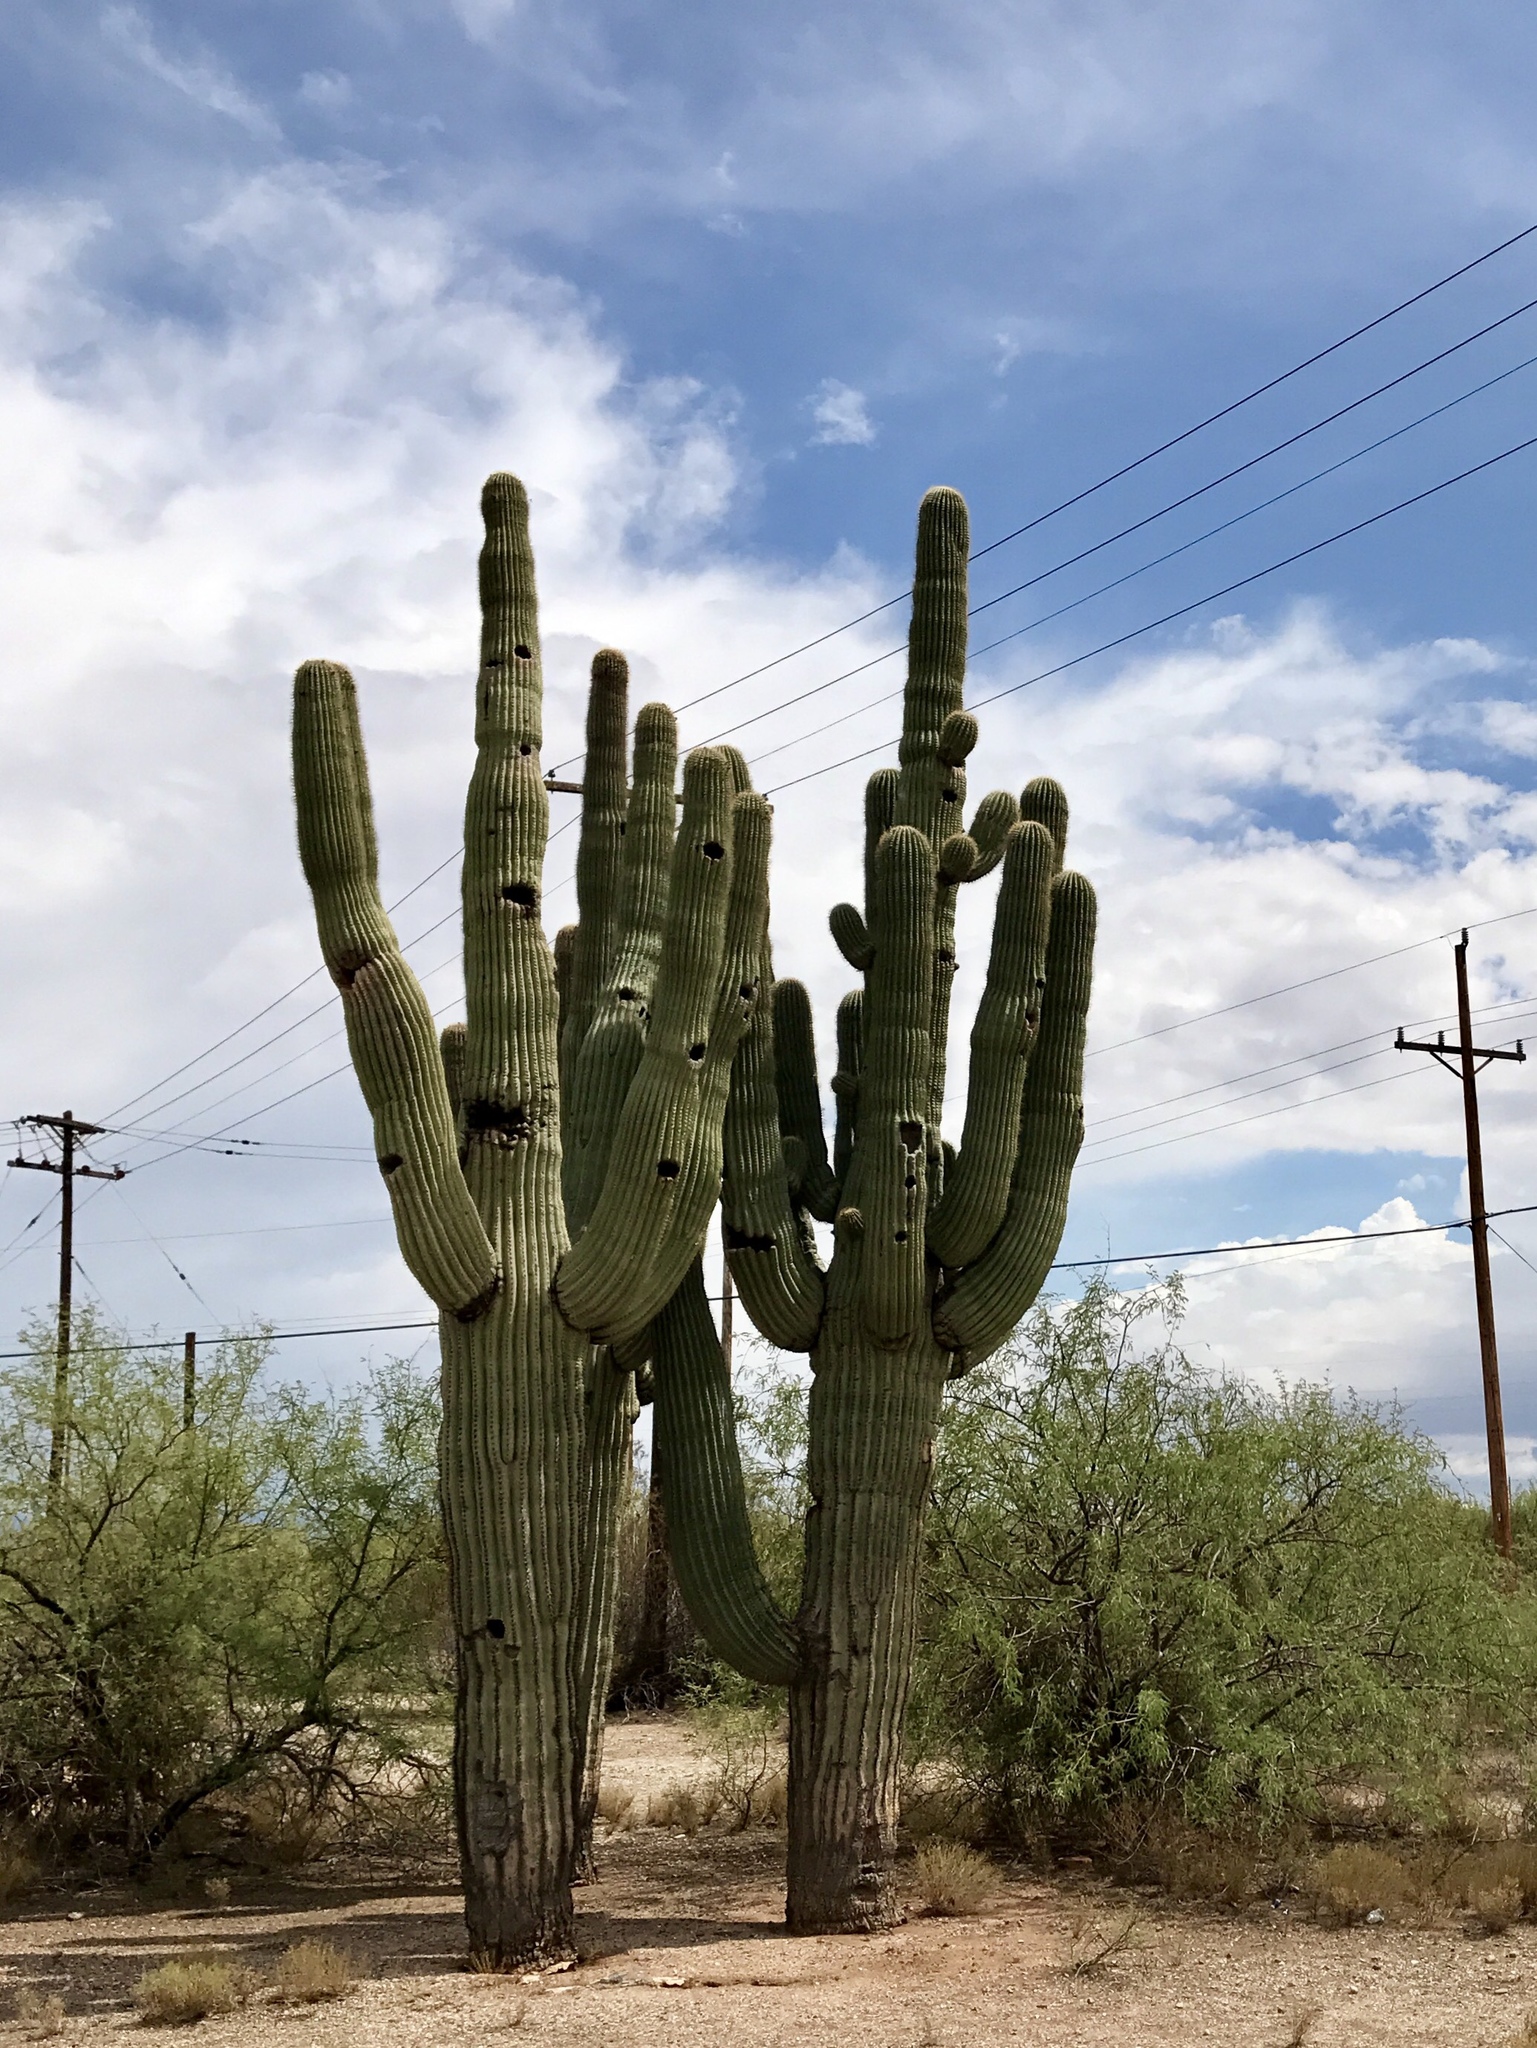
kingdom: Plantae
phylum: Tracheophyta
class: Magnoliopsida
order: Caryophyllales
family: Cactaceae
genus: Carnegiea
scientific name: Carnegiea gigantea
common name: Saguaro
